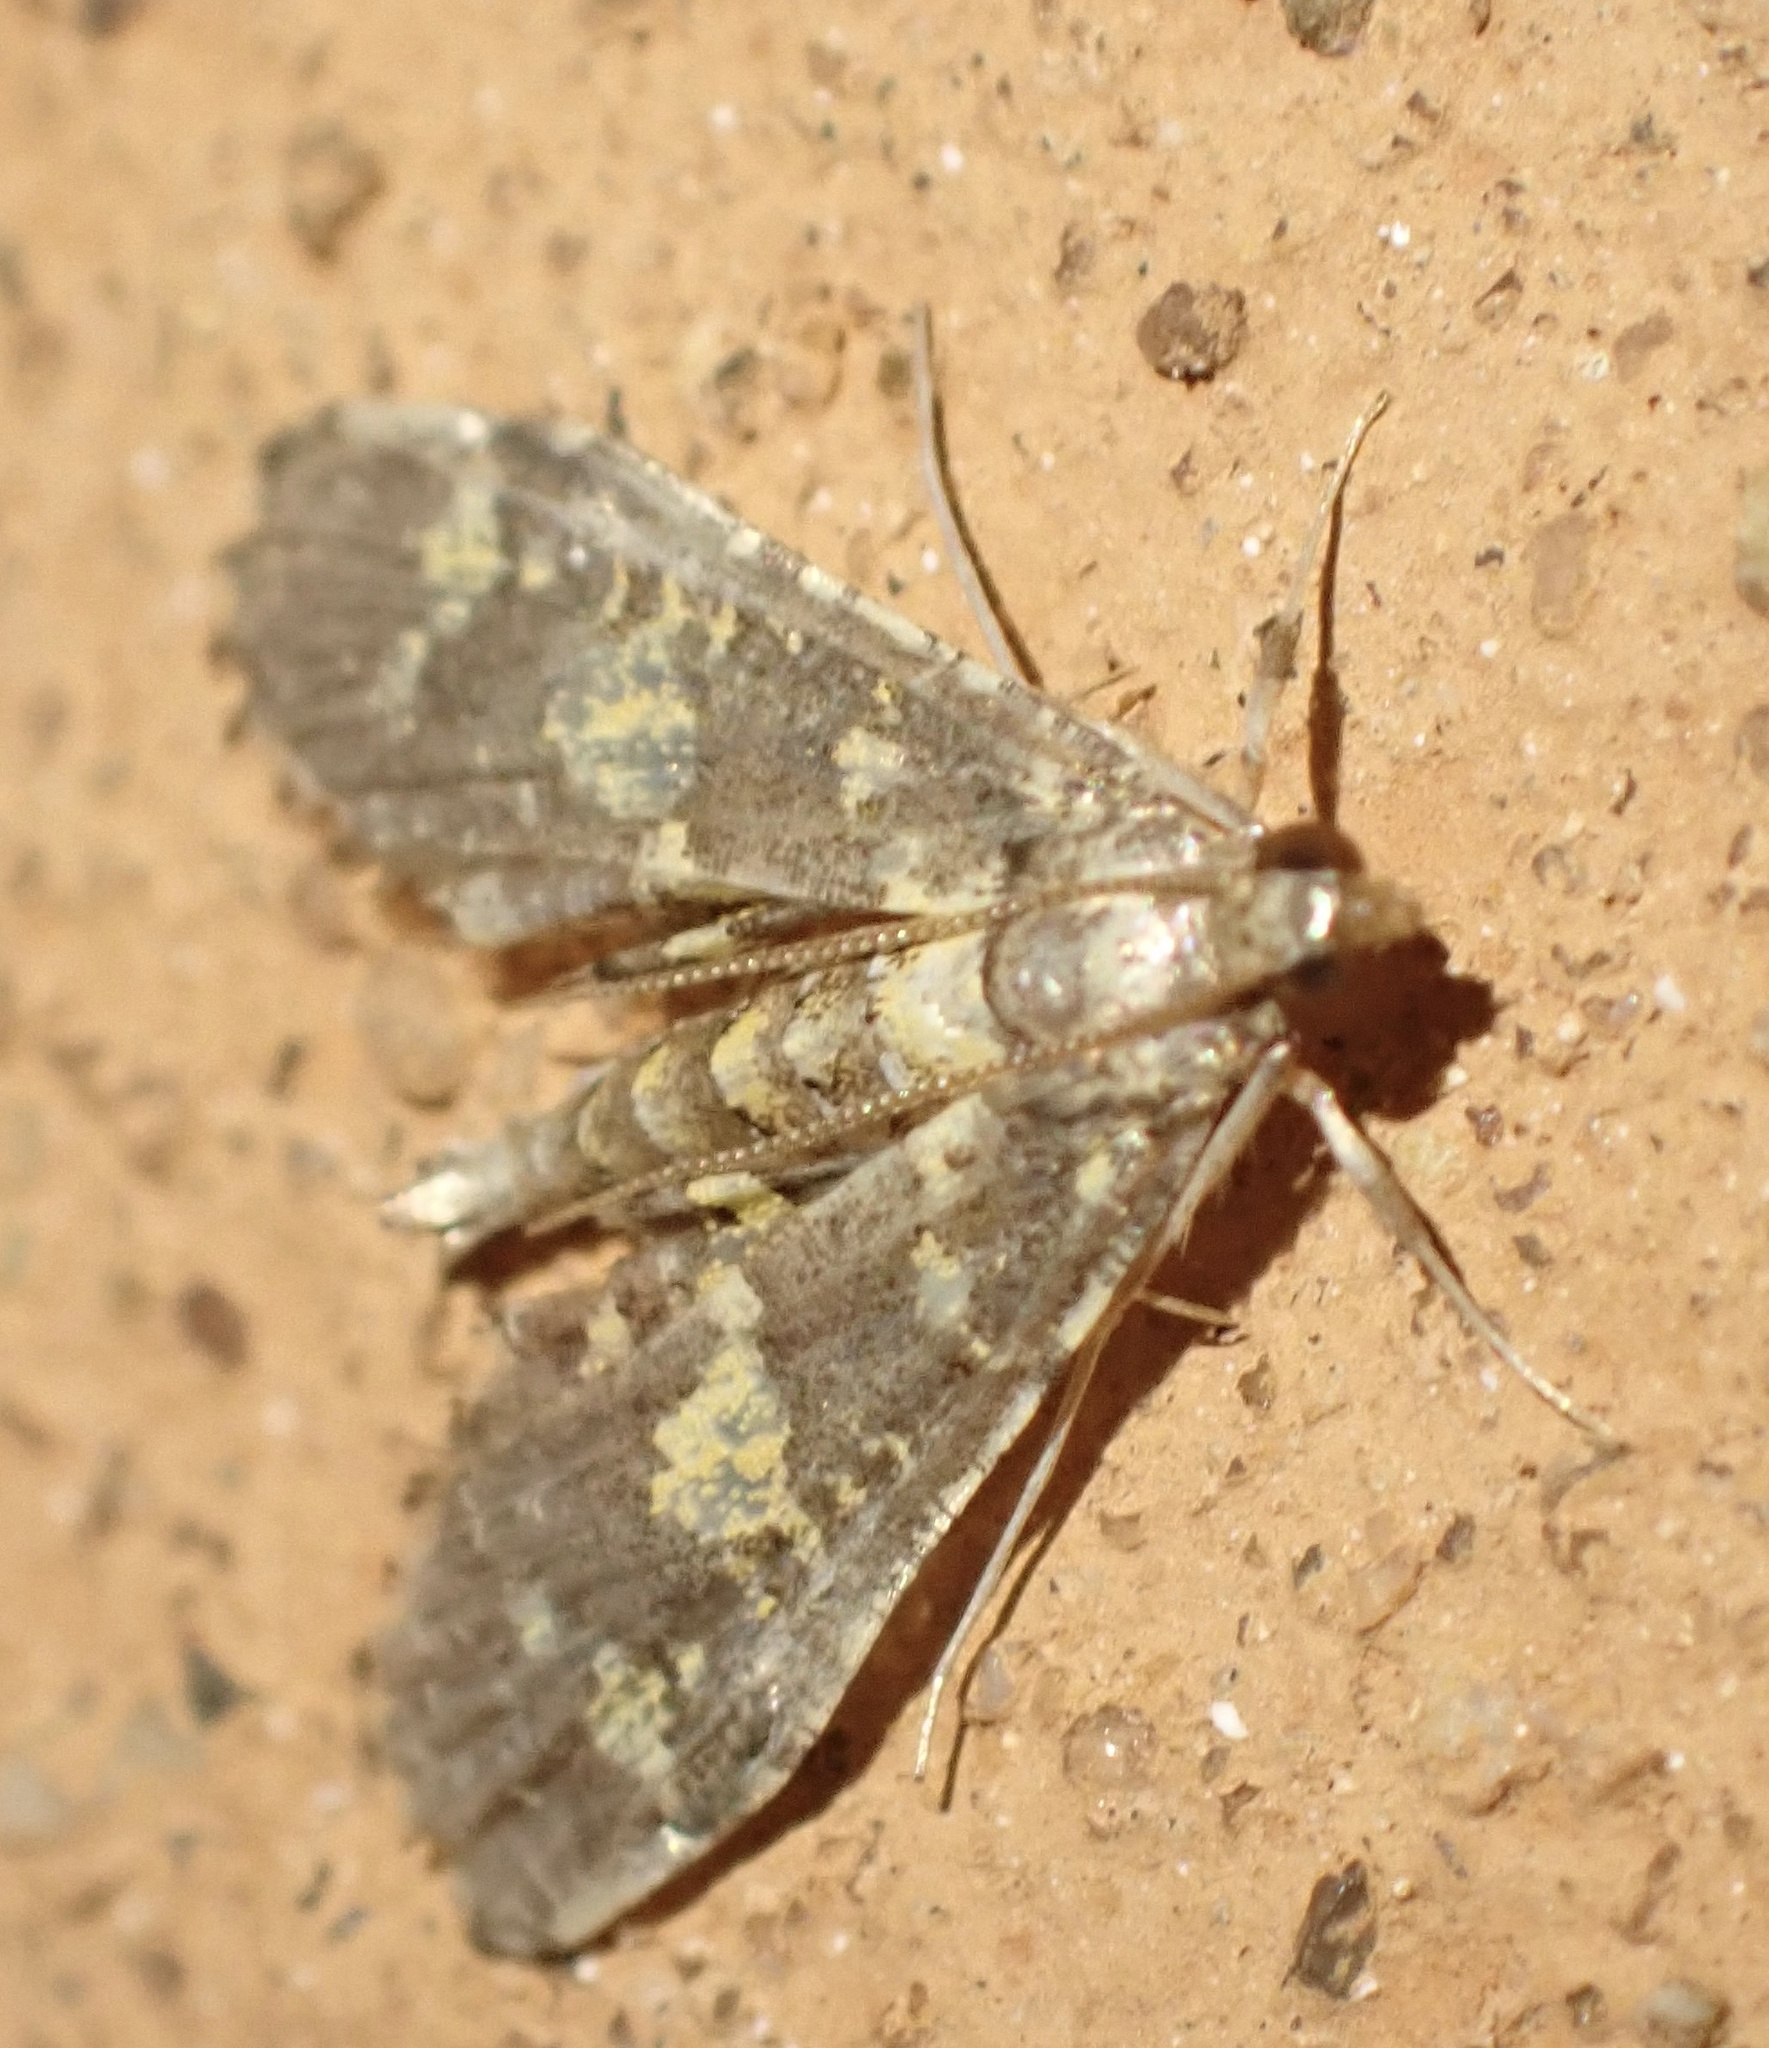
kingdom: Animalia
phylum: Arthropoda
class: Insecta
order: Lepidoptera
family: Crambidae
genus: Eurrhyparodes
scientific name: Eurrhyparodes bracteolalis
